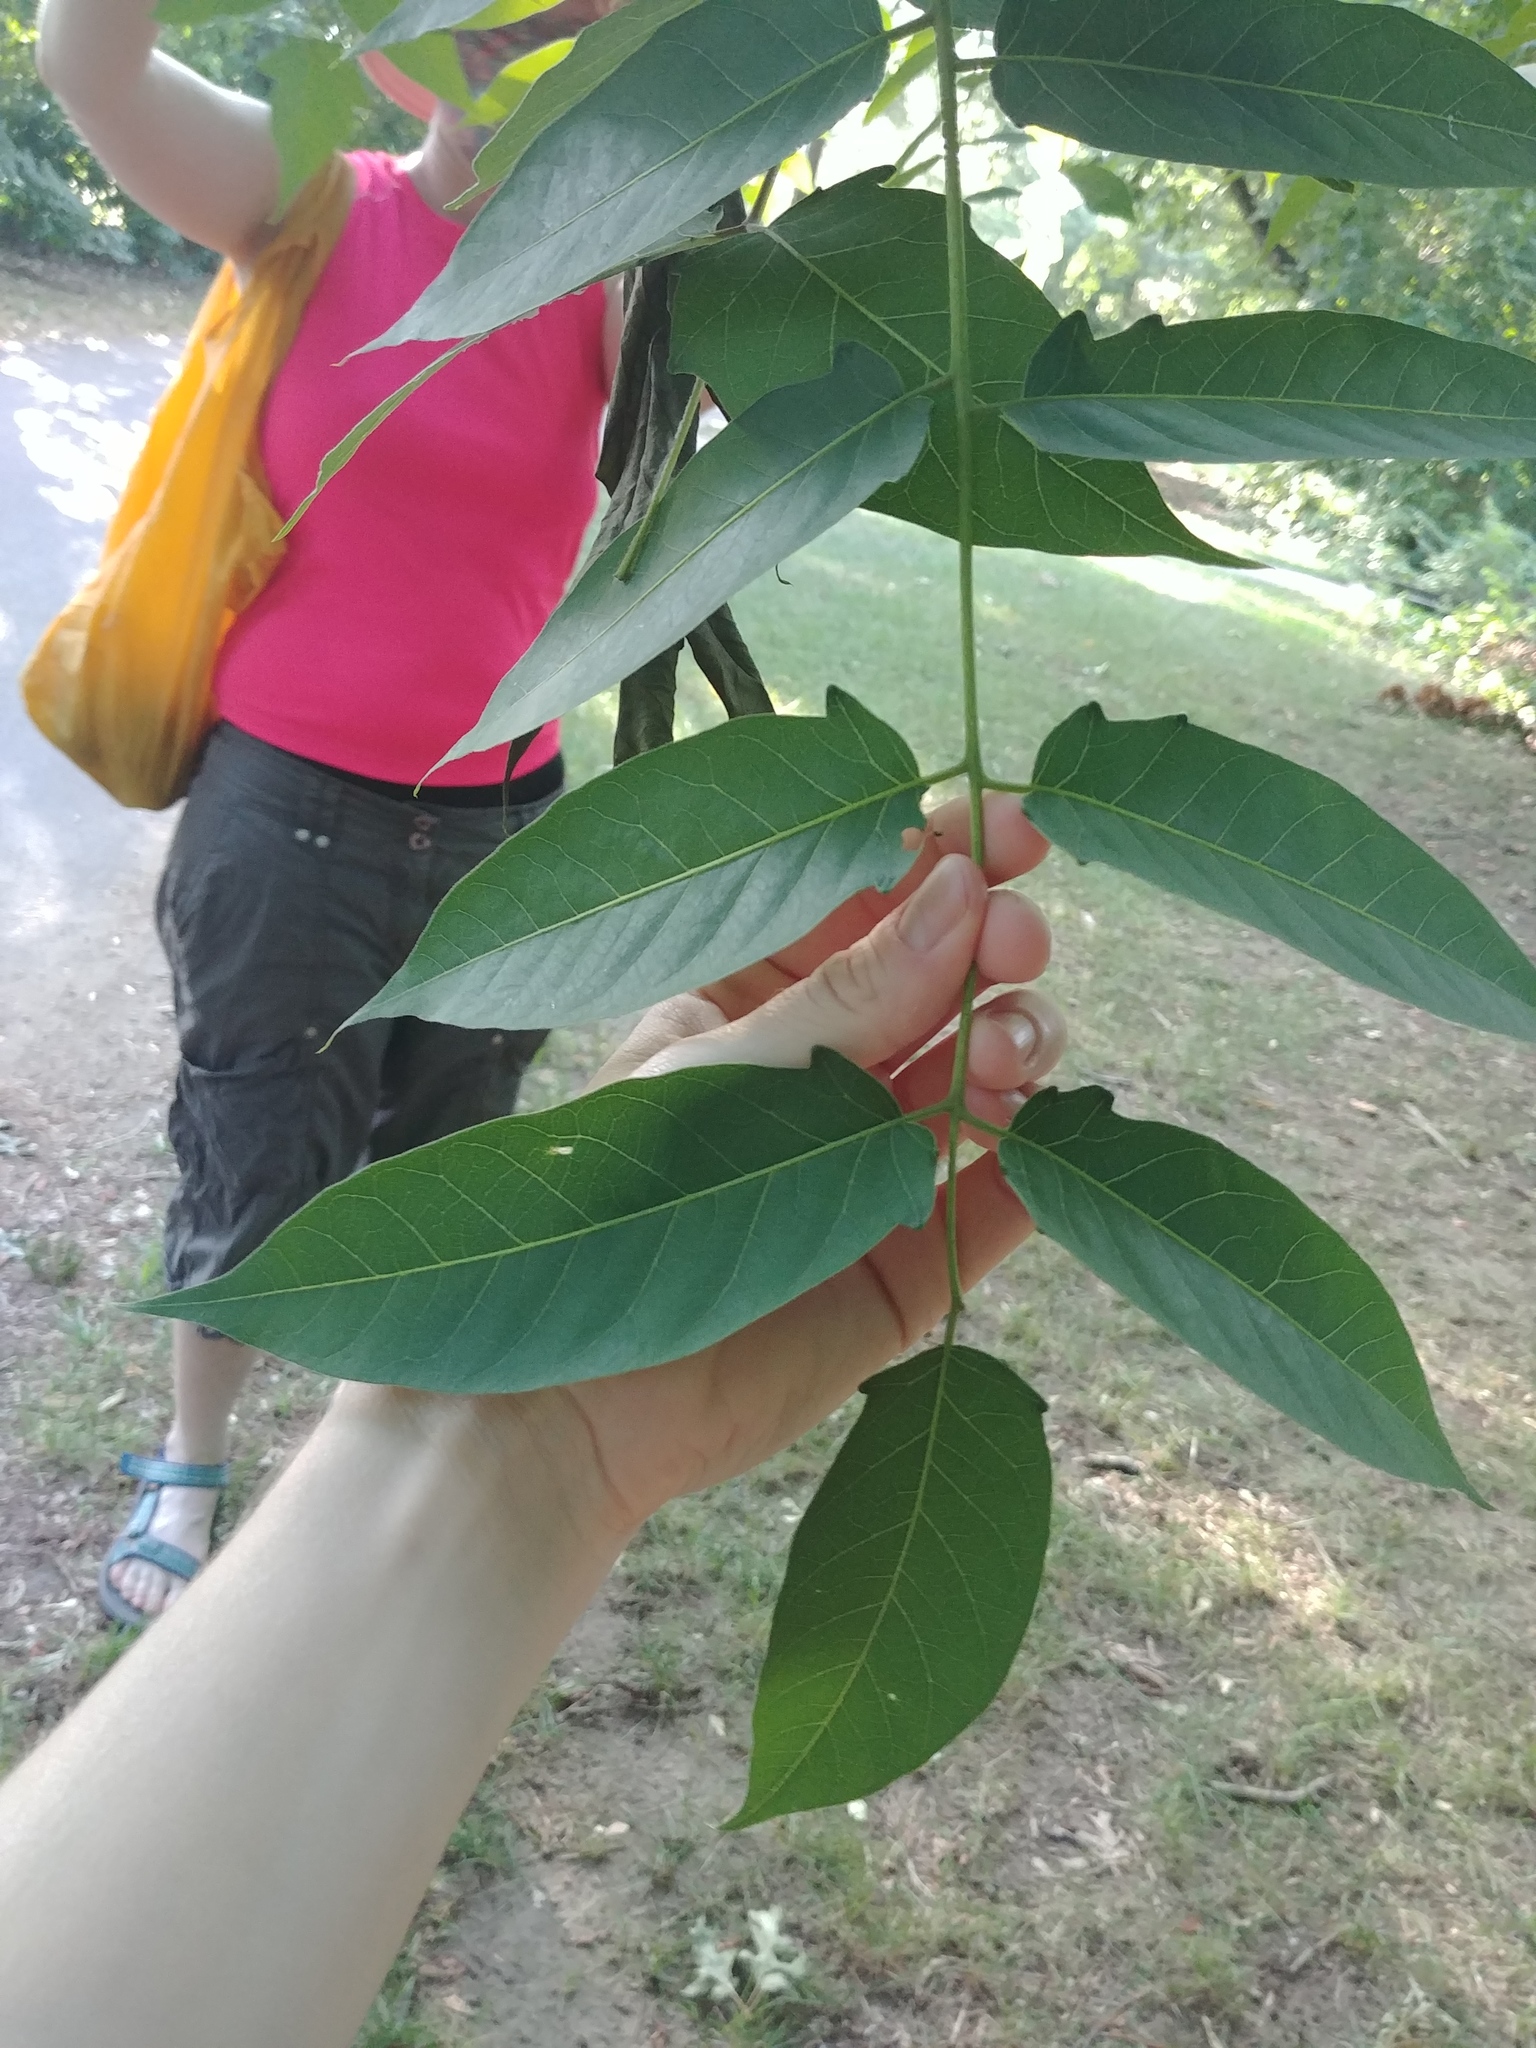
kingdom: Plantae
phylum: Tracheophyta
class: Magnoliopsida
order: Sapindales
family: Simaroubaceae
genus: Ailanthus
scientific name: Ailanthus altissima
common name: Tree-of-heaven
